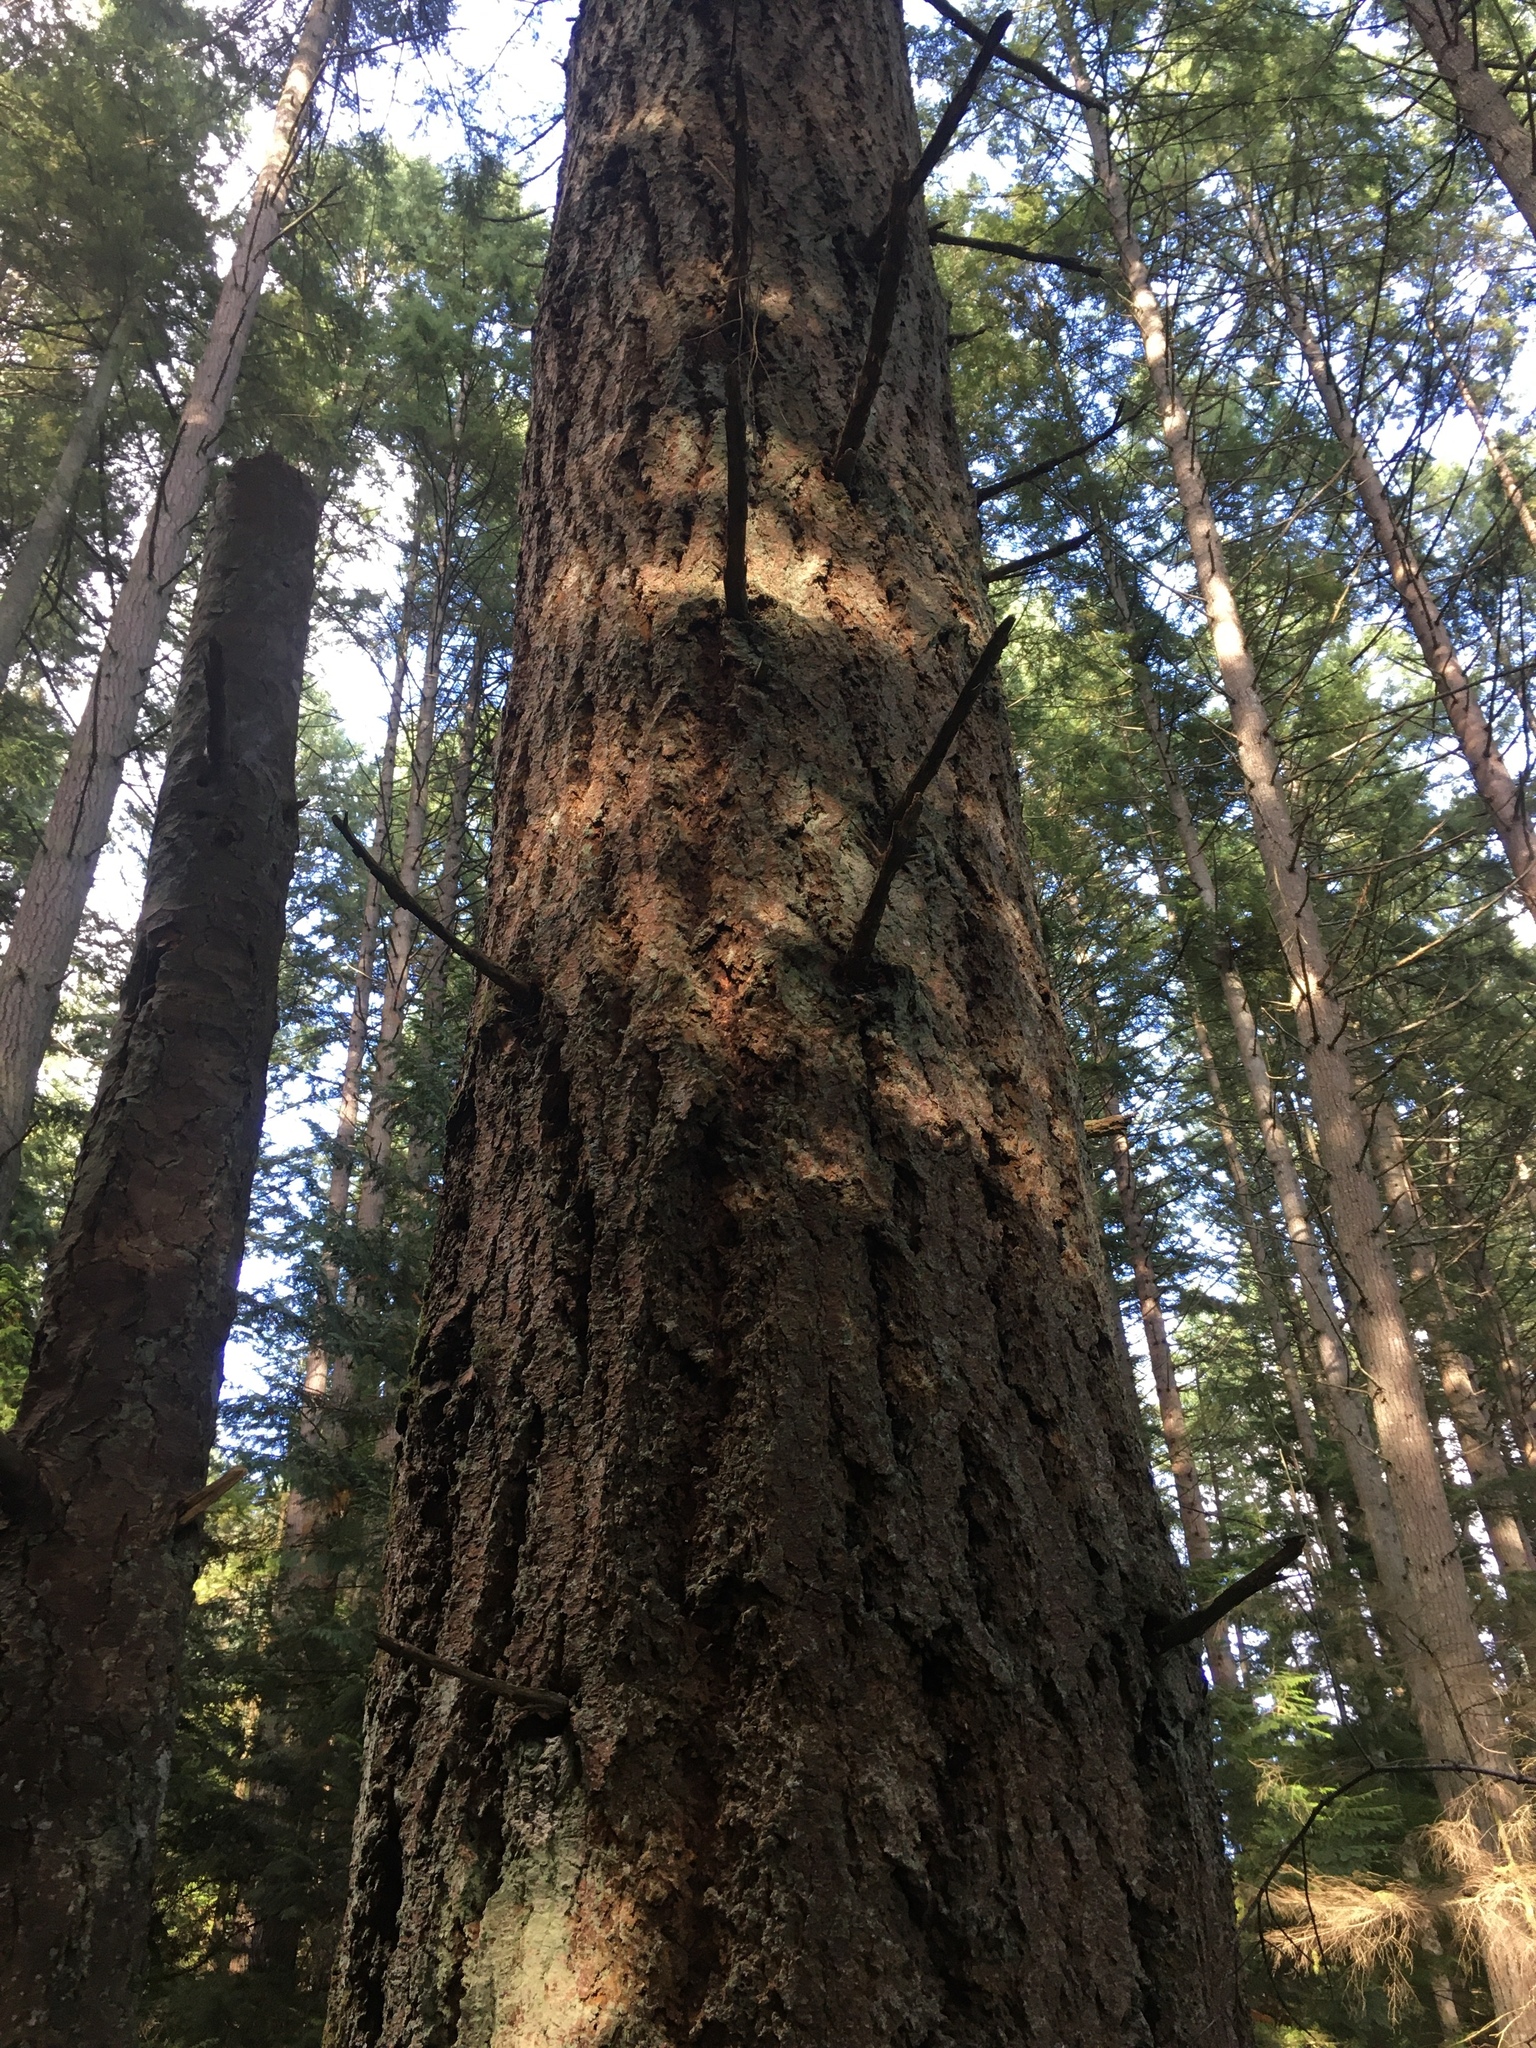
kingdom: Plantae
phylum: Tracheophyta
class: Pinopsida
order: Pinales
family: Pinaceae
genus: Pseudotsuga
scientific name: Pseudotsuga menziesii
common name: Douglas fir
